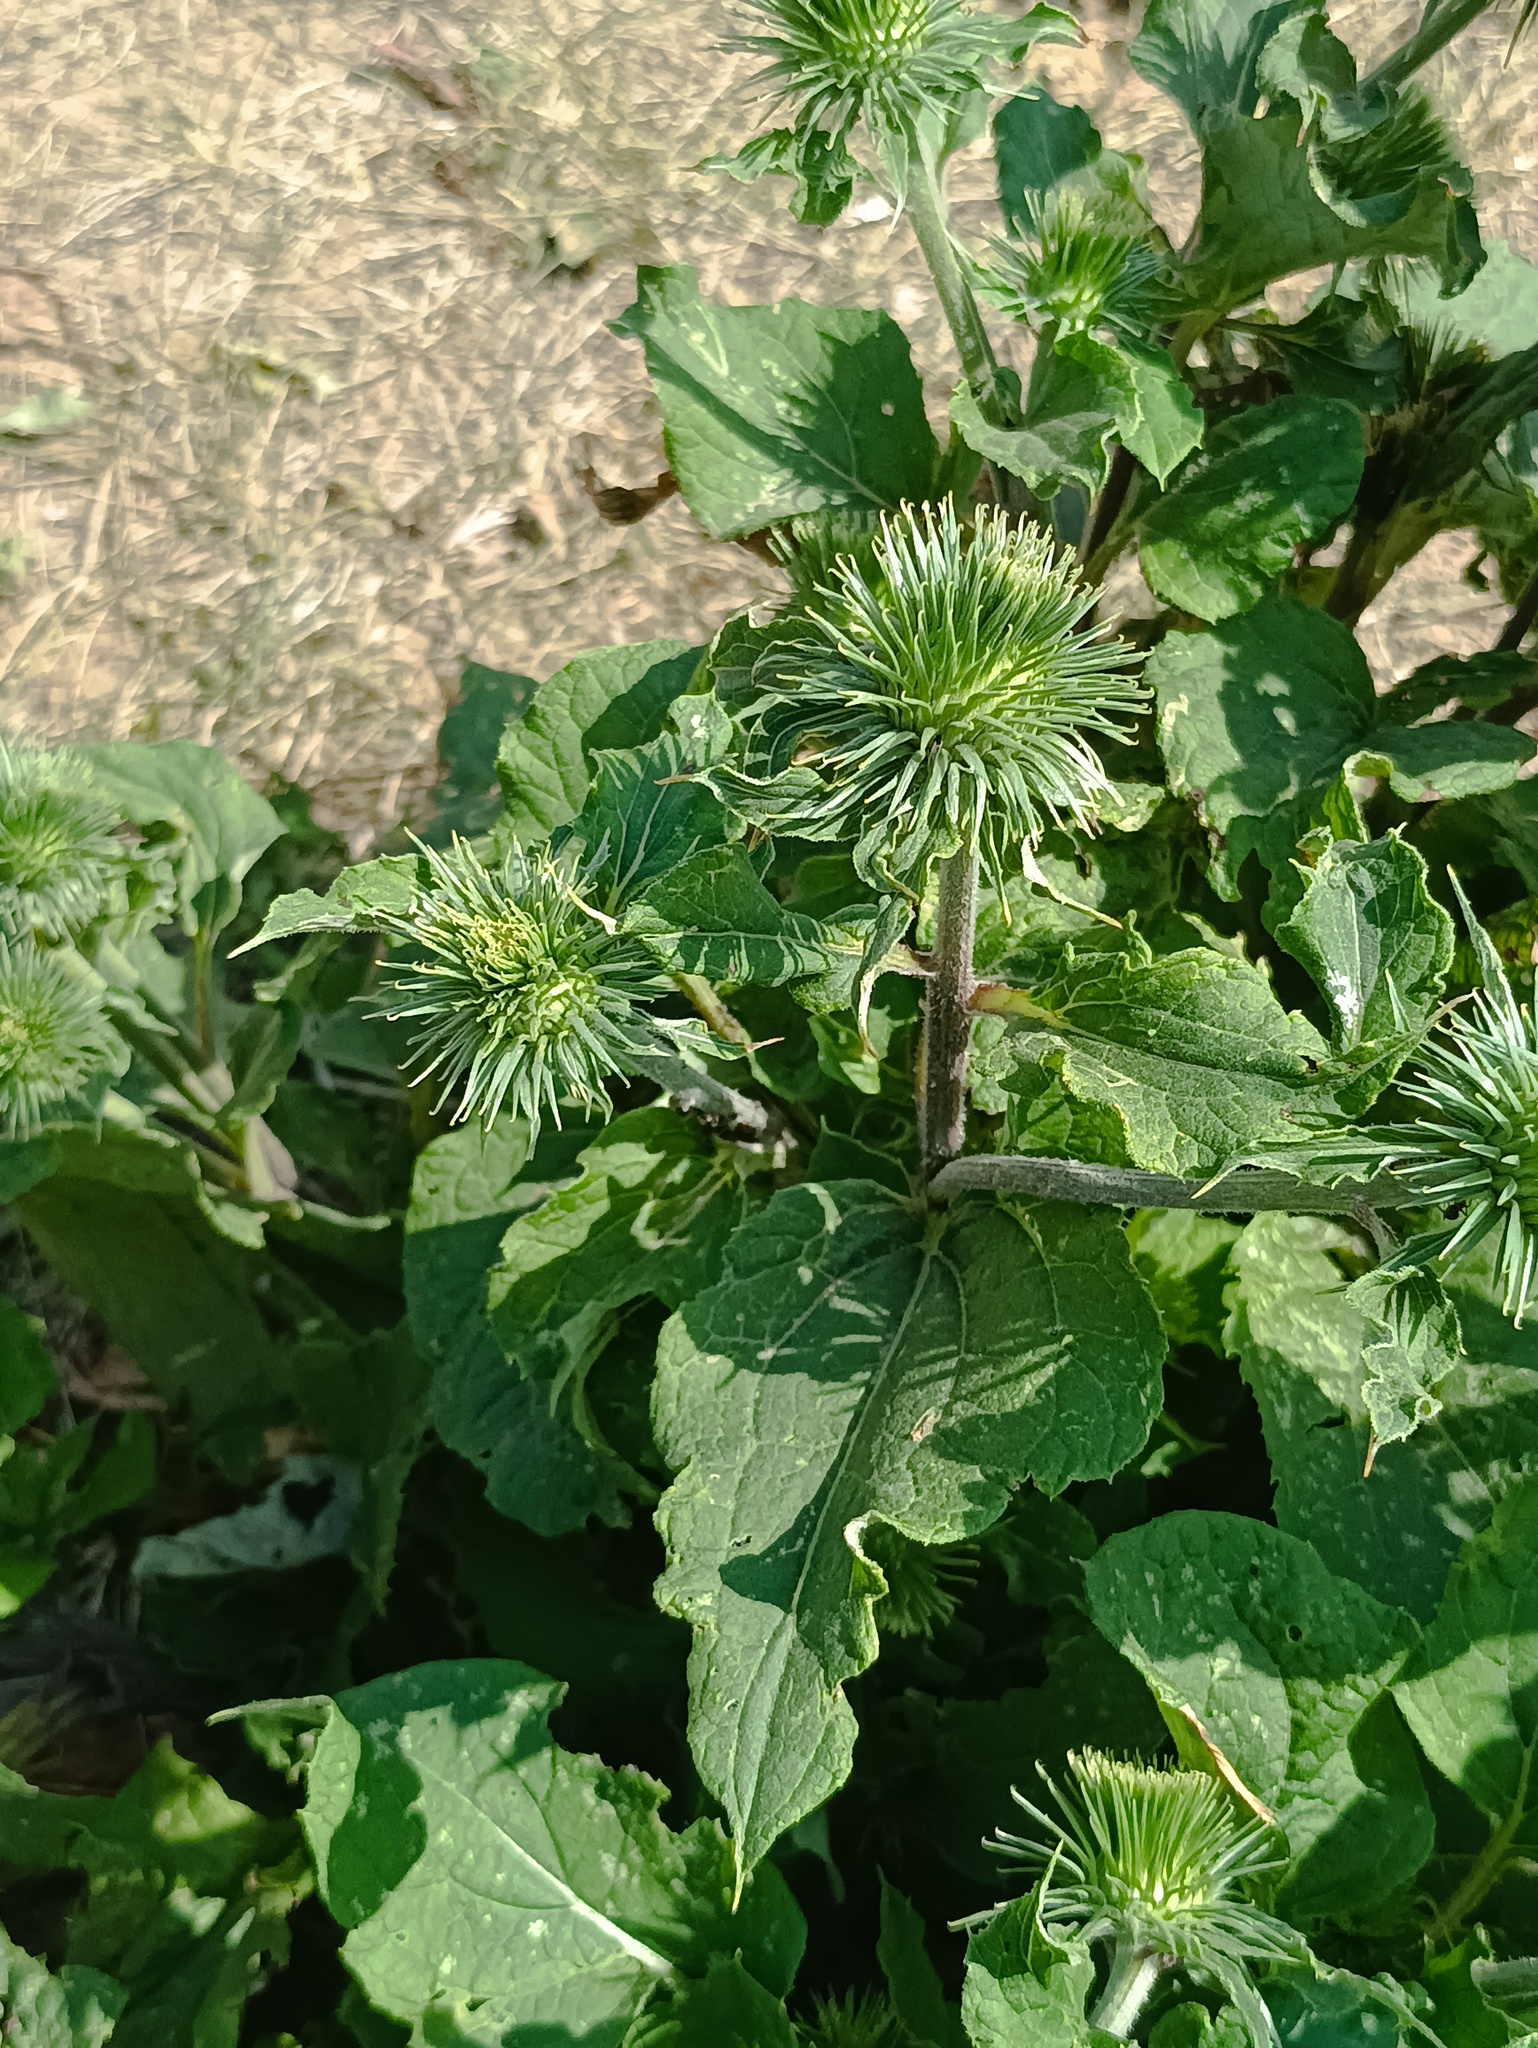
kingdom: Plantae
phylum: Tracheophyta
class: Magnoliopsida
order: Asterales
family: Asteraceae
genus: Arctium
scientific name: Arctium lappa
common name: Greater burdock
